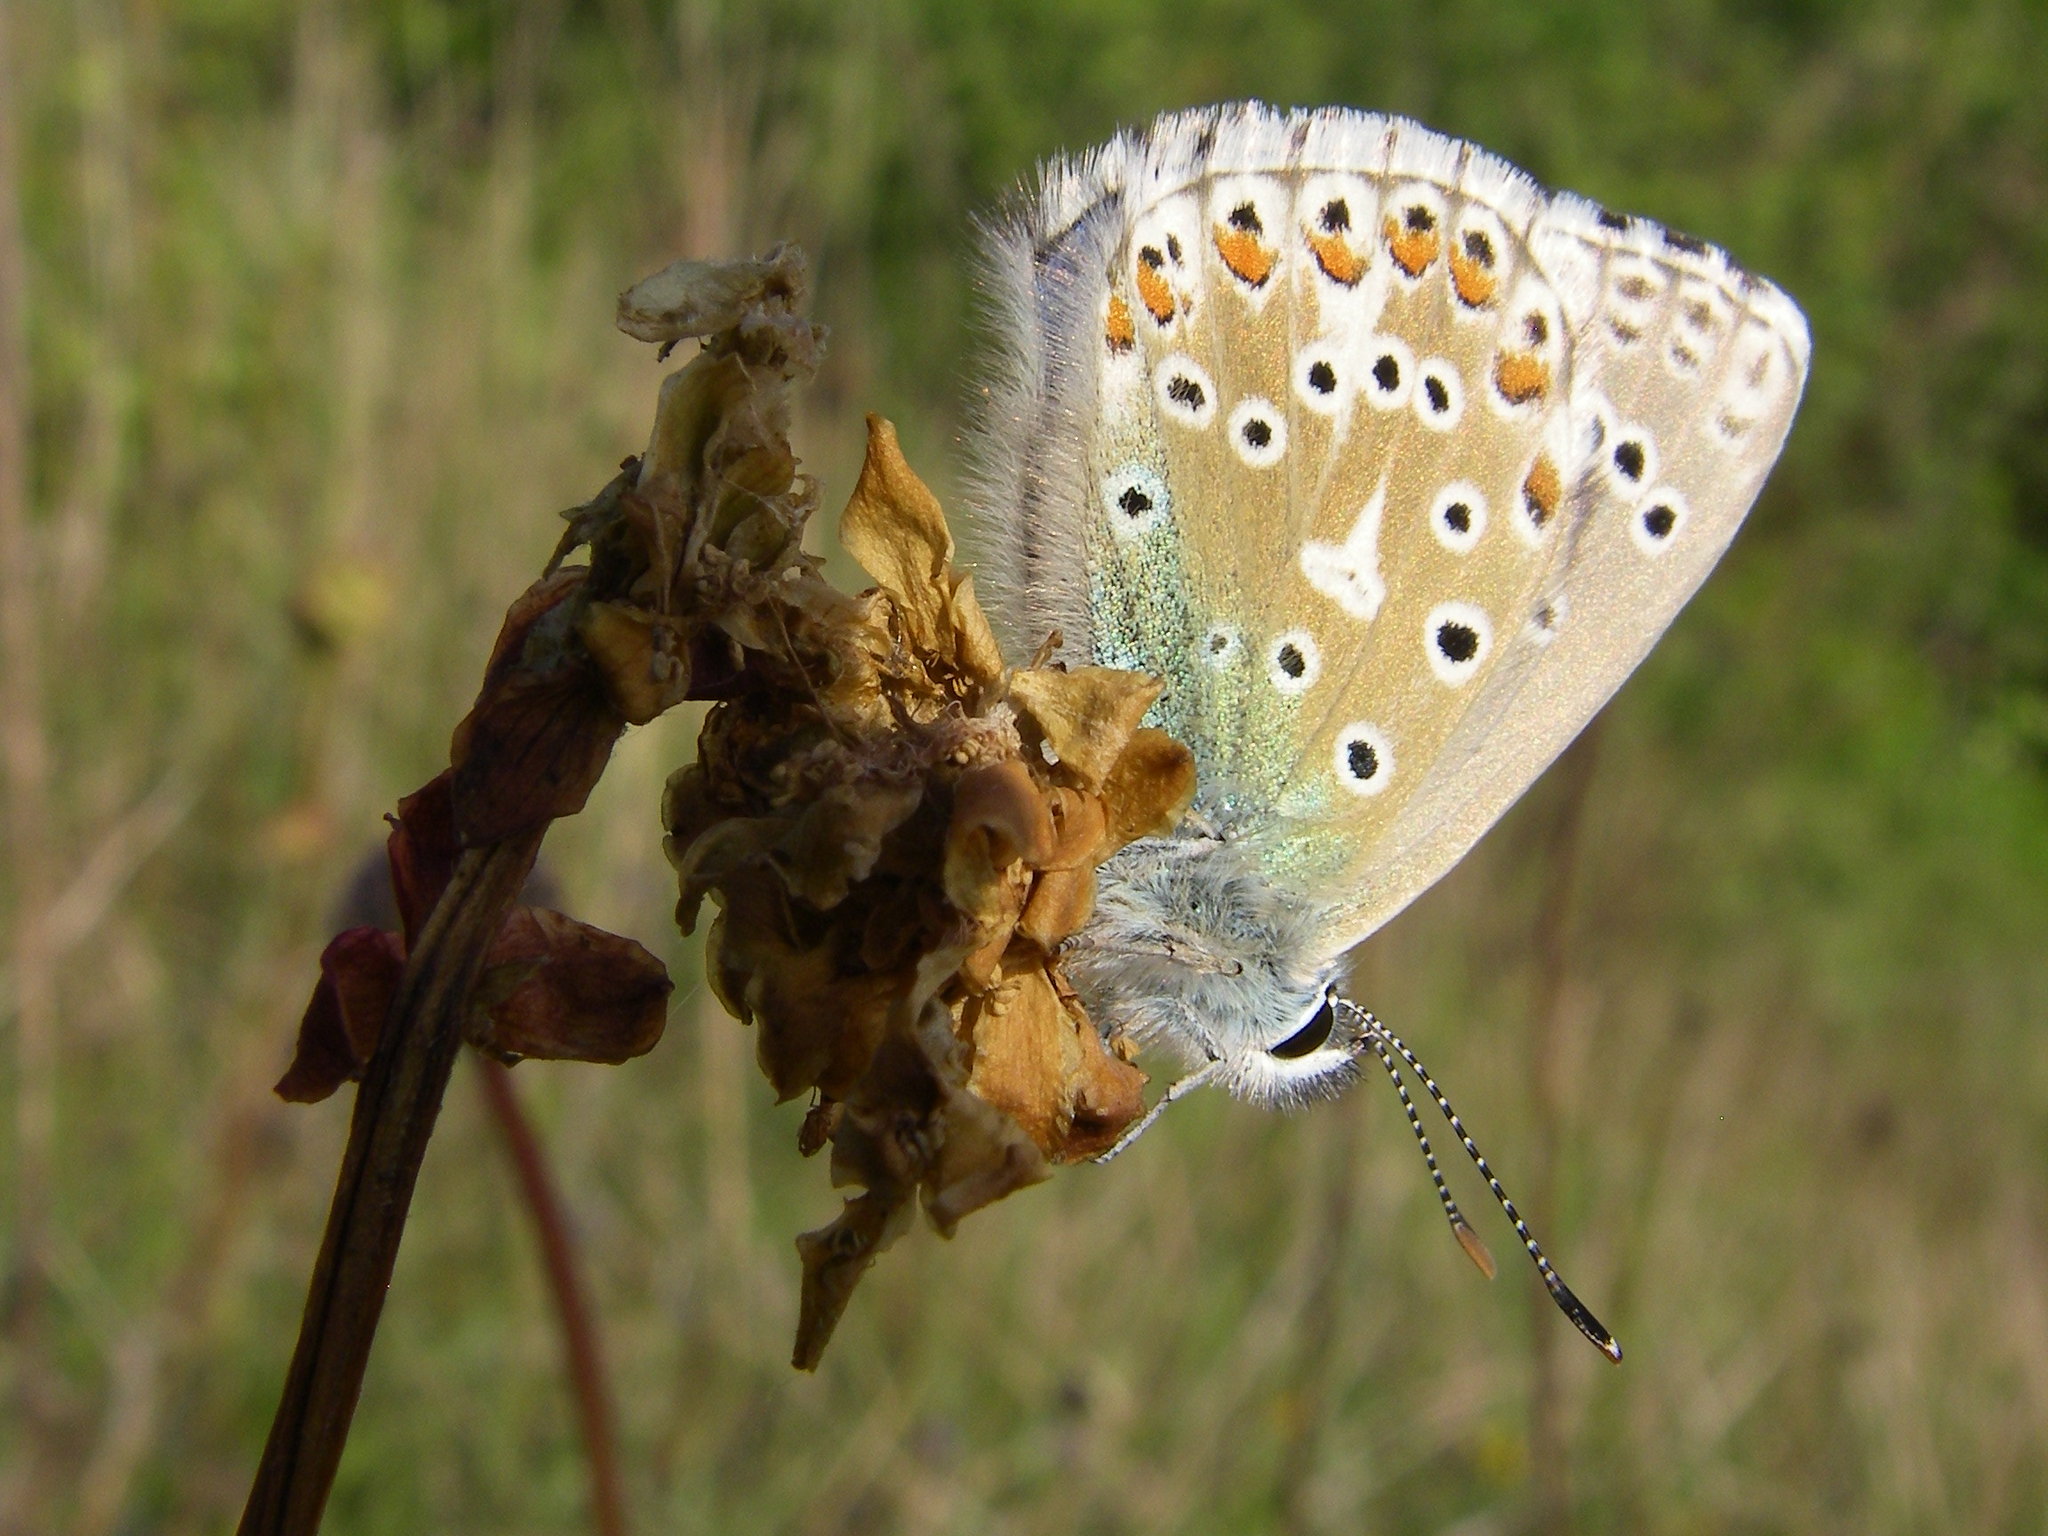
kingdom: Animalia
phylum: Arthropoda
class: Insecta
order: Lepidoptera
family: Lycaenidae
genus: Lysandra
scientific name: Lysandra bellargus
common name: Adonis blue
